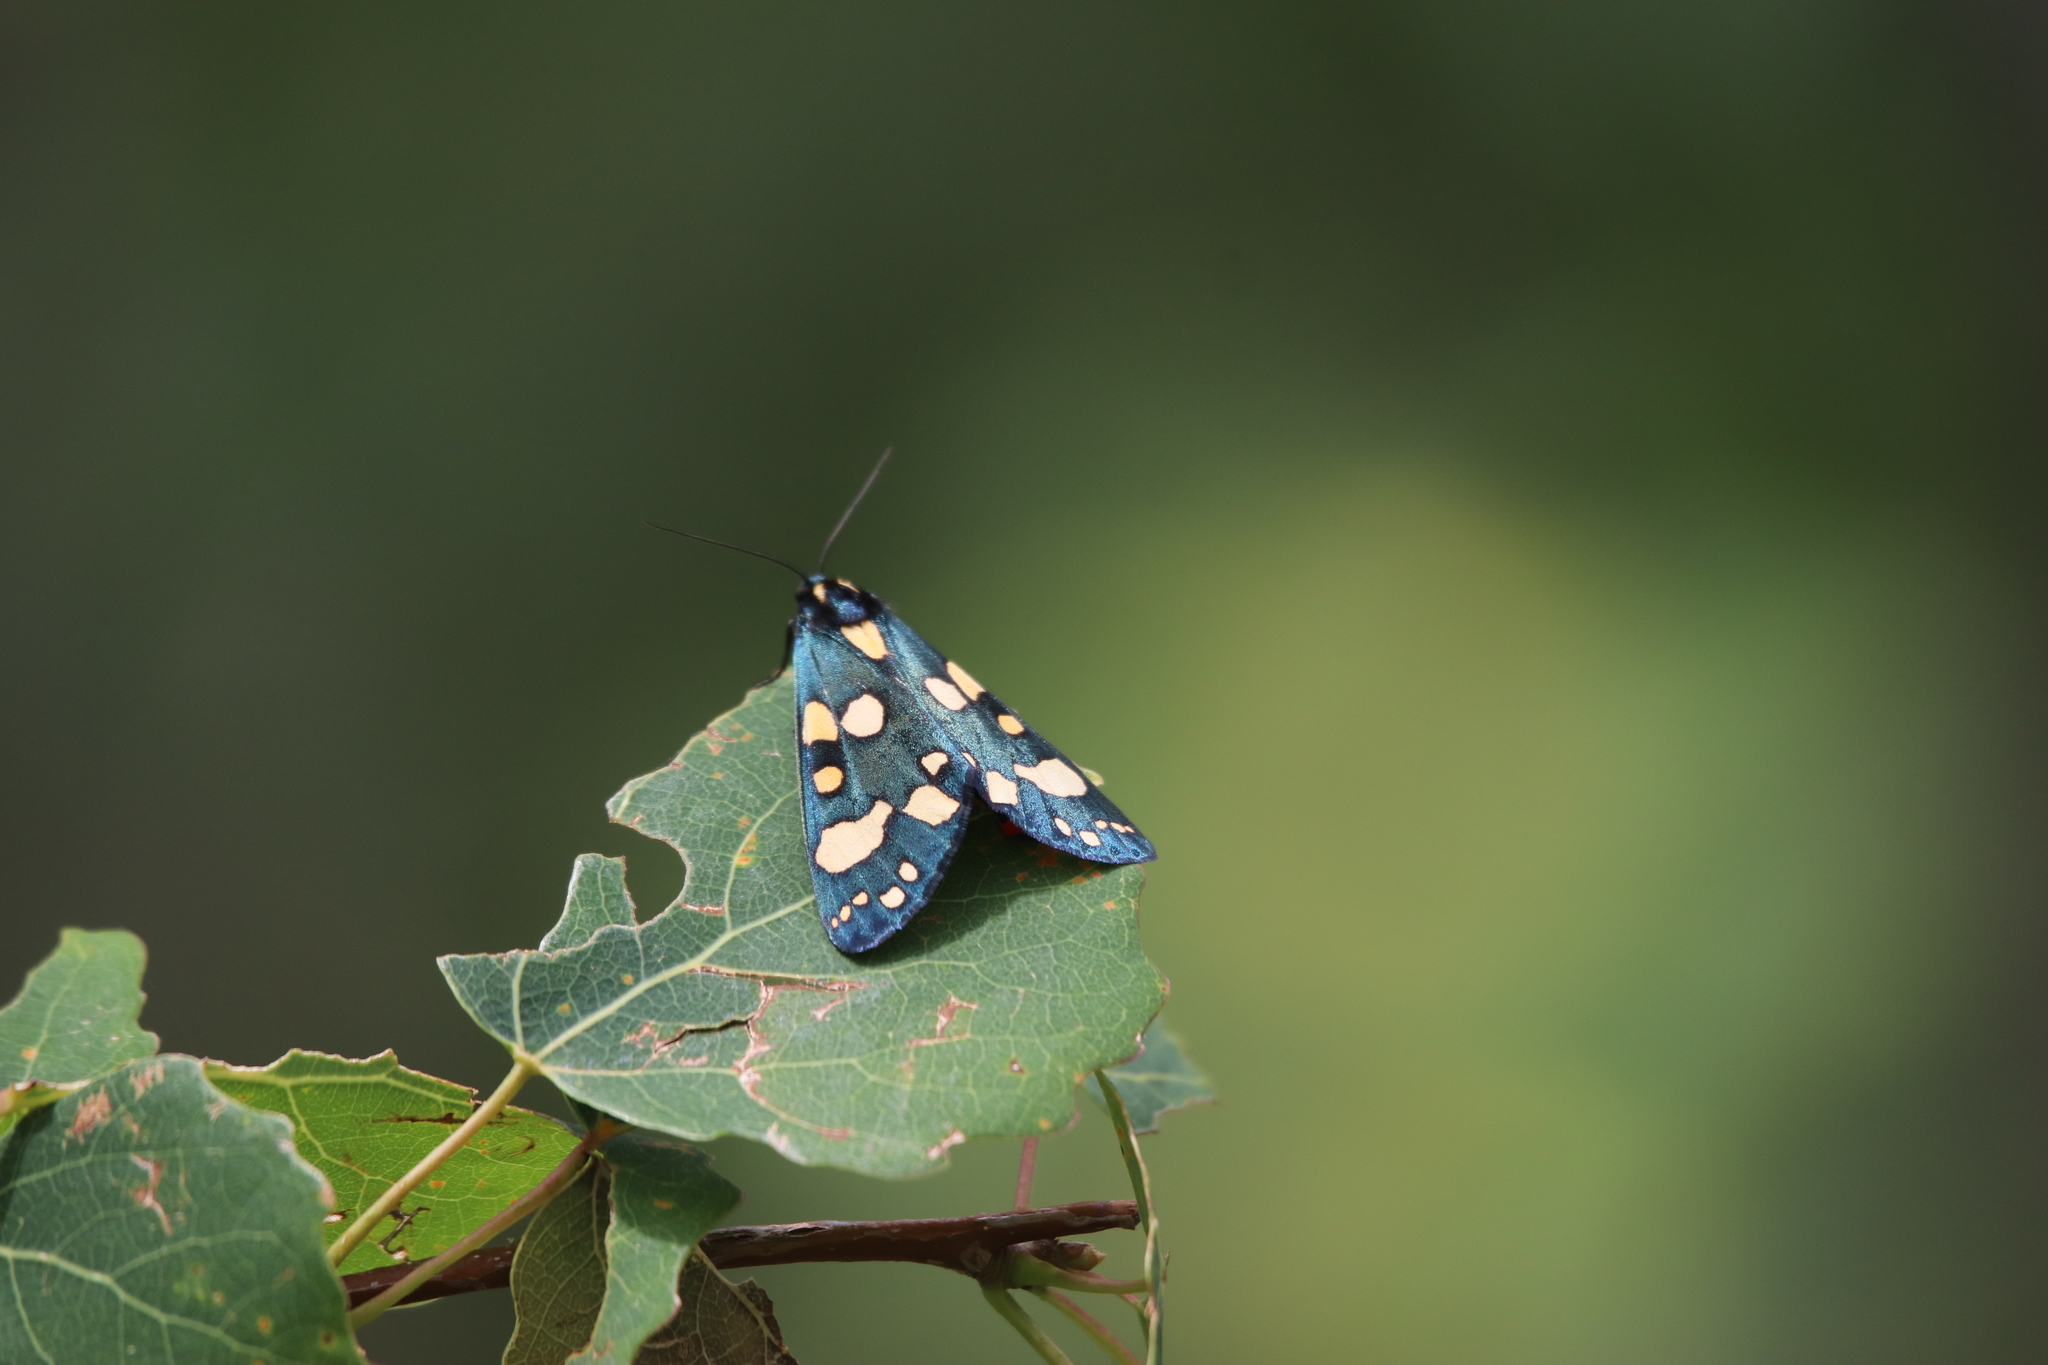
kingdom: Animalia
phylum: Arthropoda
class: Insecta
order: Lepidoptera
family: Erebidae
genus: Callimorpha
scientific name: Callimorpha dominula
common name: Scarlet tiger
